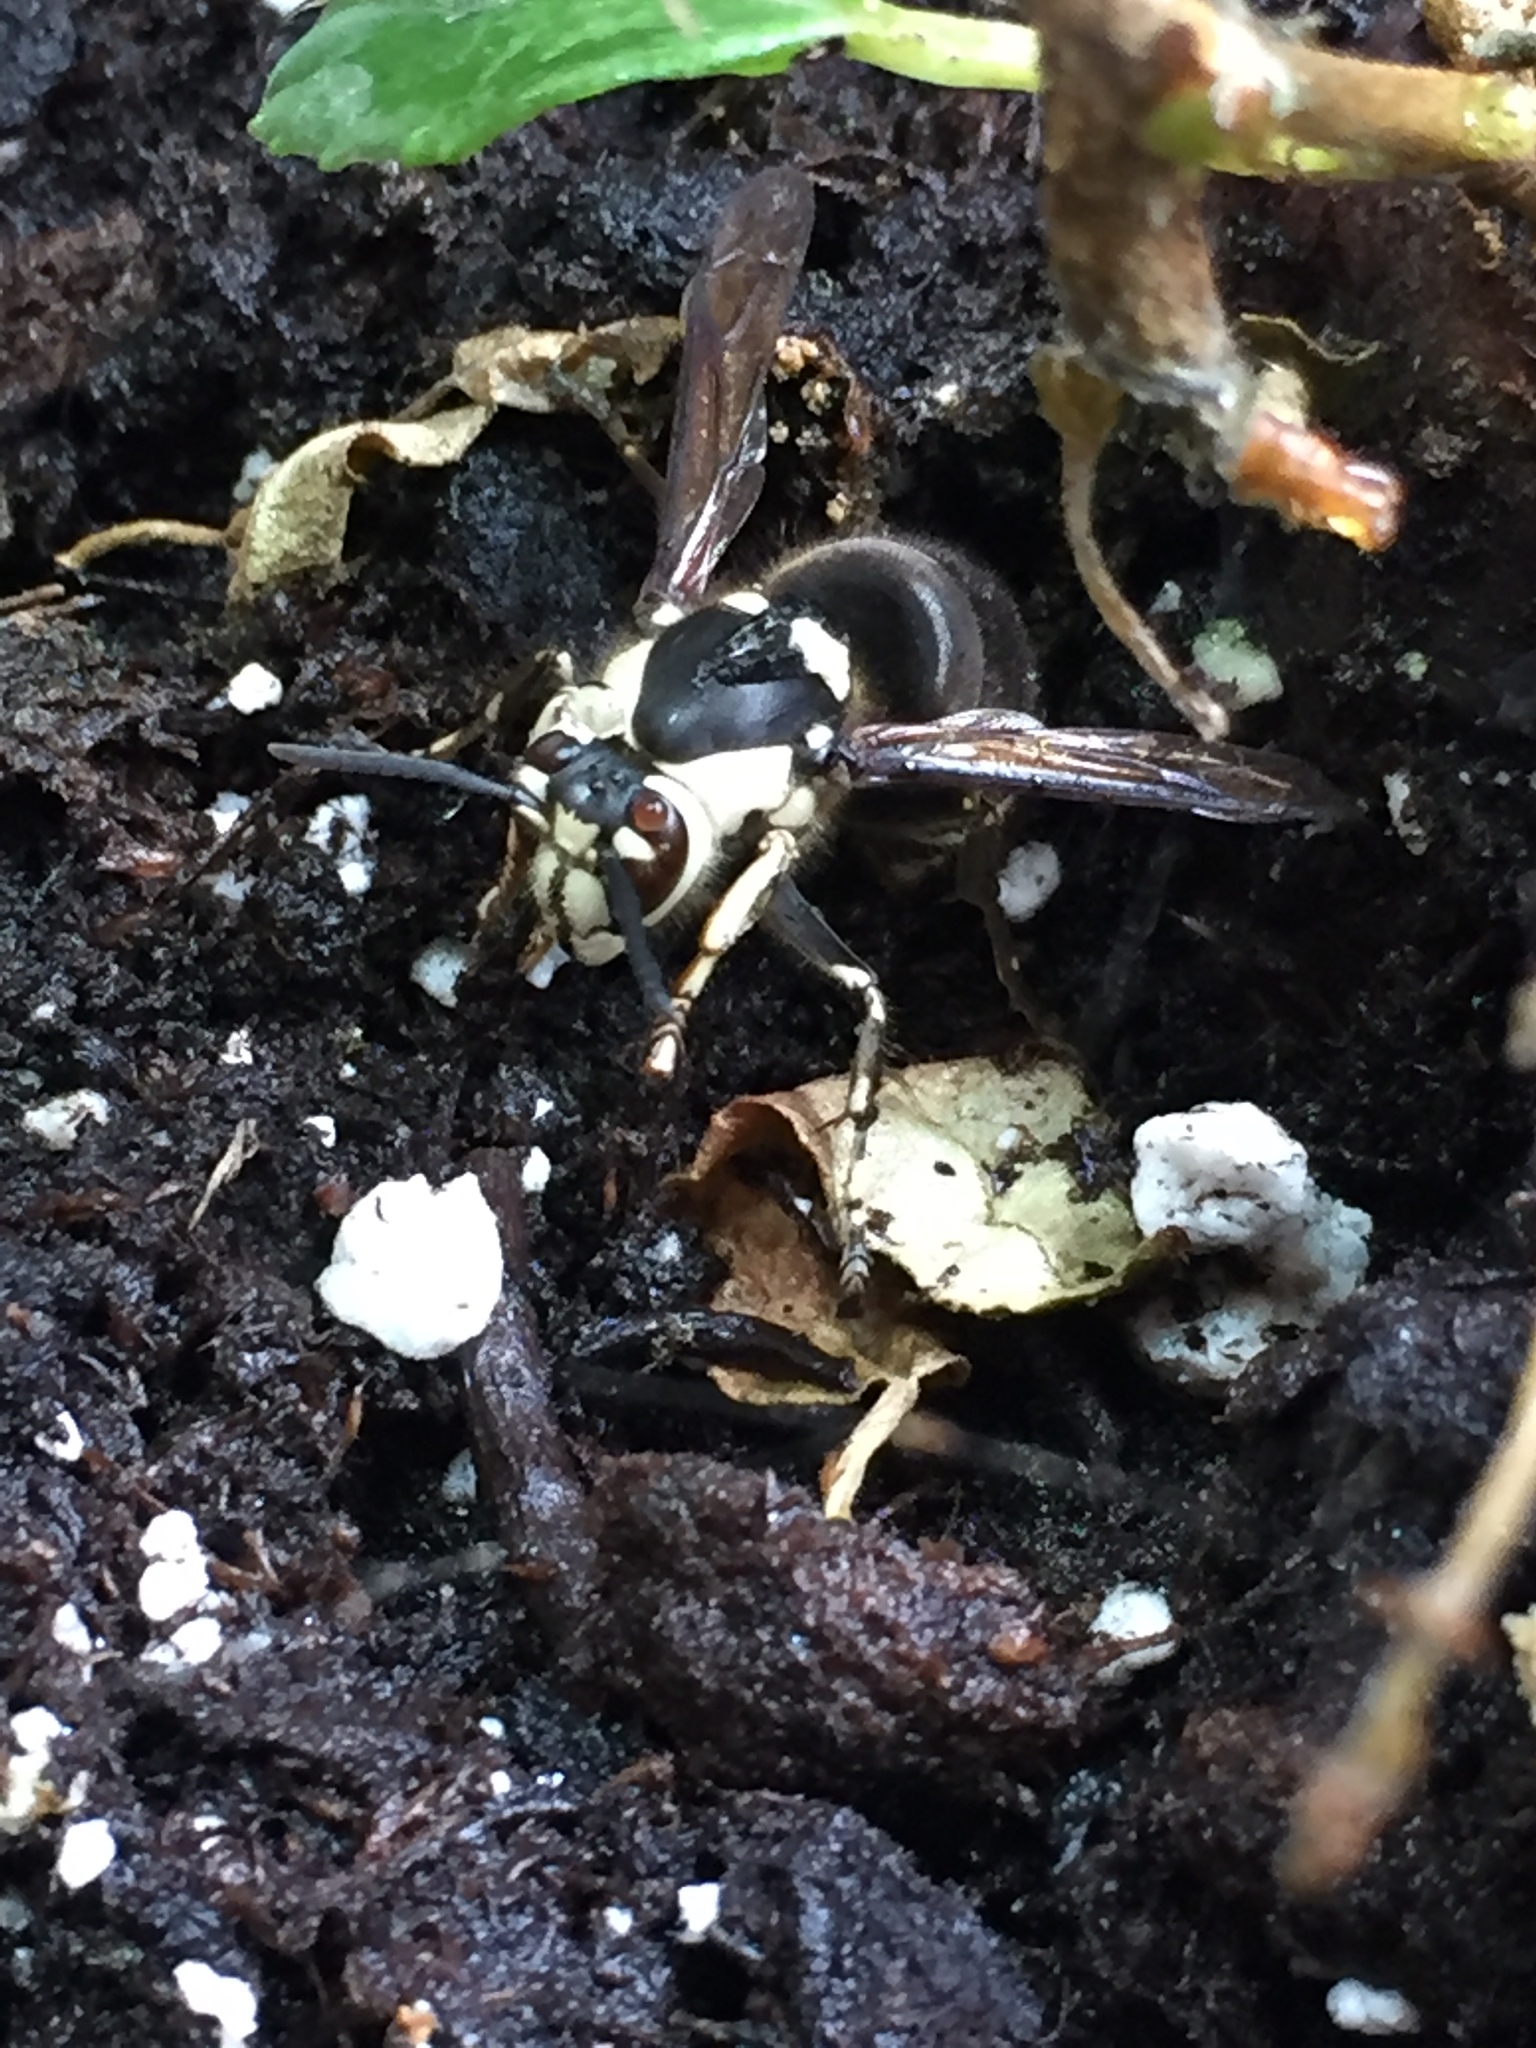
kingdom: Animalia
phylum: Arthropoda
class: Insecta
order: Hymenoptera
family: Vespidae
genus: Dolichovespula
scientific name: Dolichovespula maculata
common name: Bald-faced hornet
